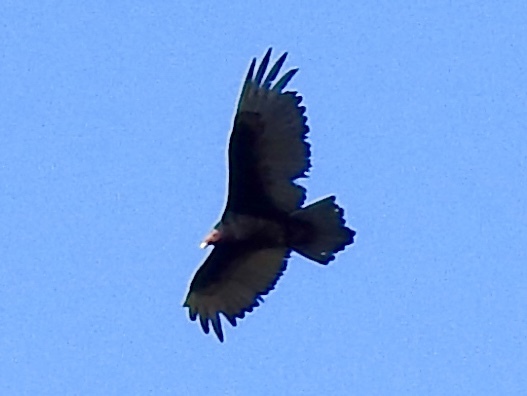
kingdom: Animalia
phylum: Chordata
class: Aves
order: Accipitriformes
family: Cathartidae
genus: Cathartes
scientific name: Cathartes aura
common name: Turkey vulture
